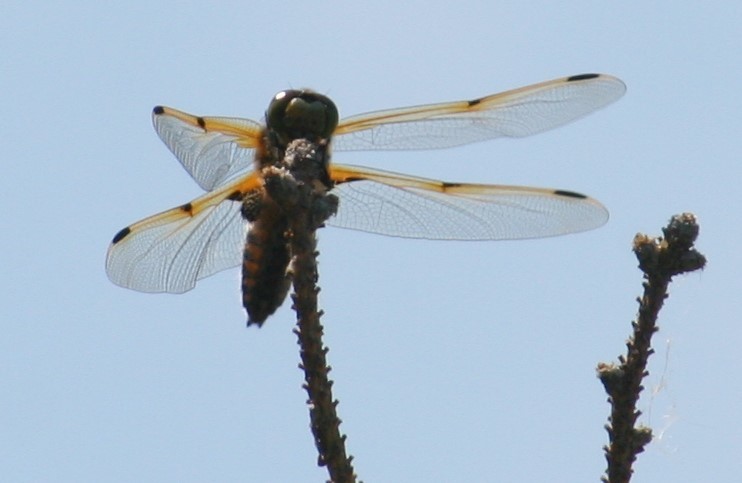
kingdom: Animalia
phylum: Arthropoda
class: Insecta
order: Odonata
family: Libellulidae
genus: Libellula
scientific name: Libellula quadrimaculata
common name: Four-spotted chaser
